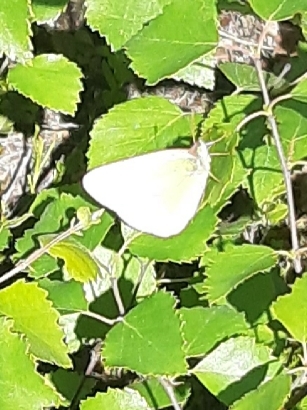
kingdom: Animalia
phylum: Arthropoda
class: Insecta
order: Lepidoptera
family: Pieridae
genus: Colias
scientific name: Colias palaeno
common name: Moorland clouded yellow
